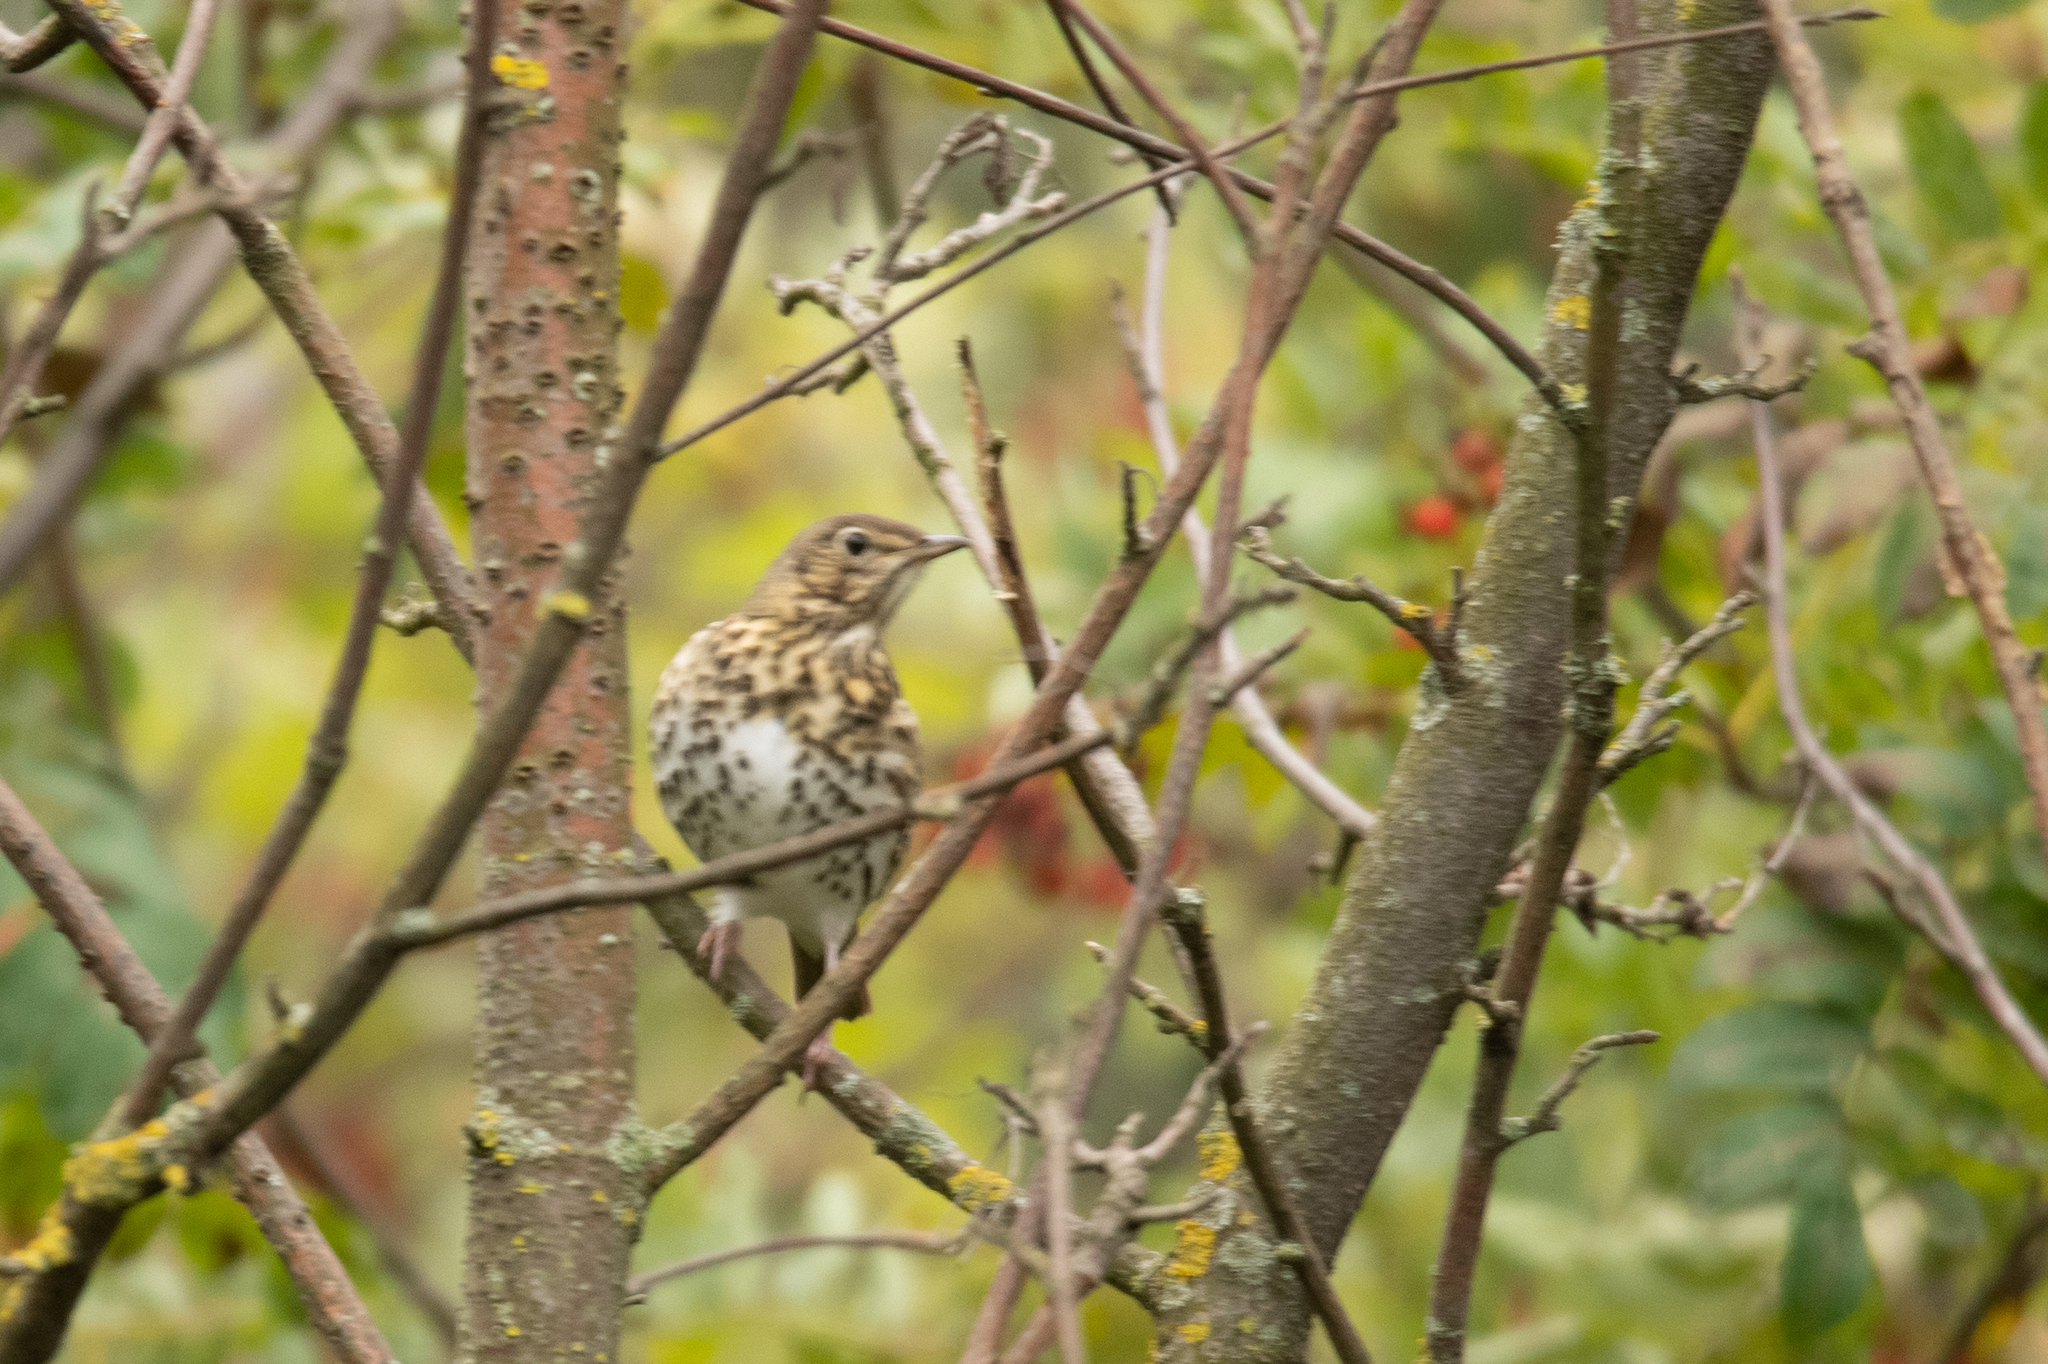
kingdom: Animalia
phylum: Chordata
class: Aves
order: Passeriformes
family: Turdidae
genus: Turdus
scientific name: Turdus philomelos
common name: Song thrush
